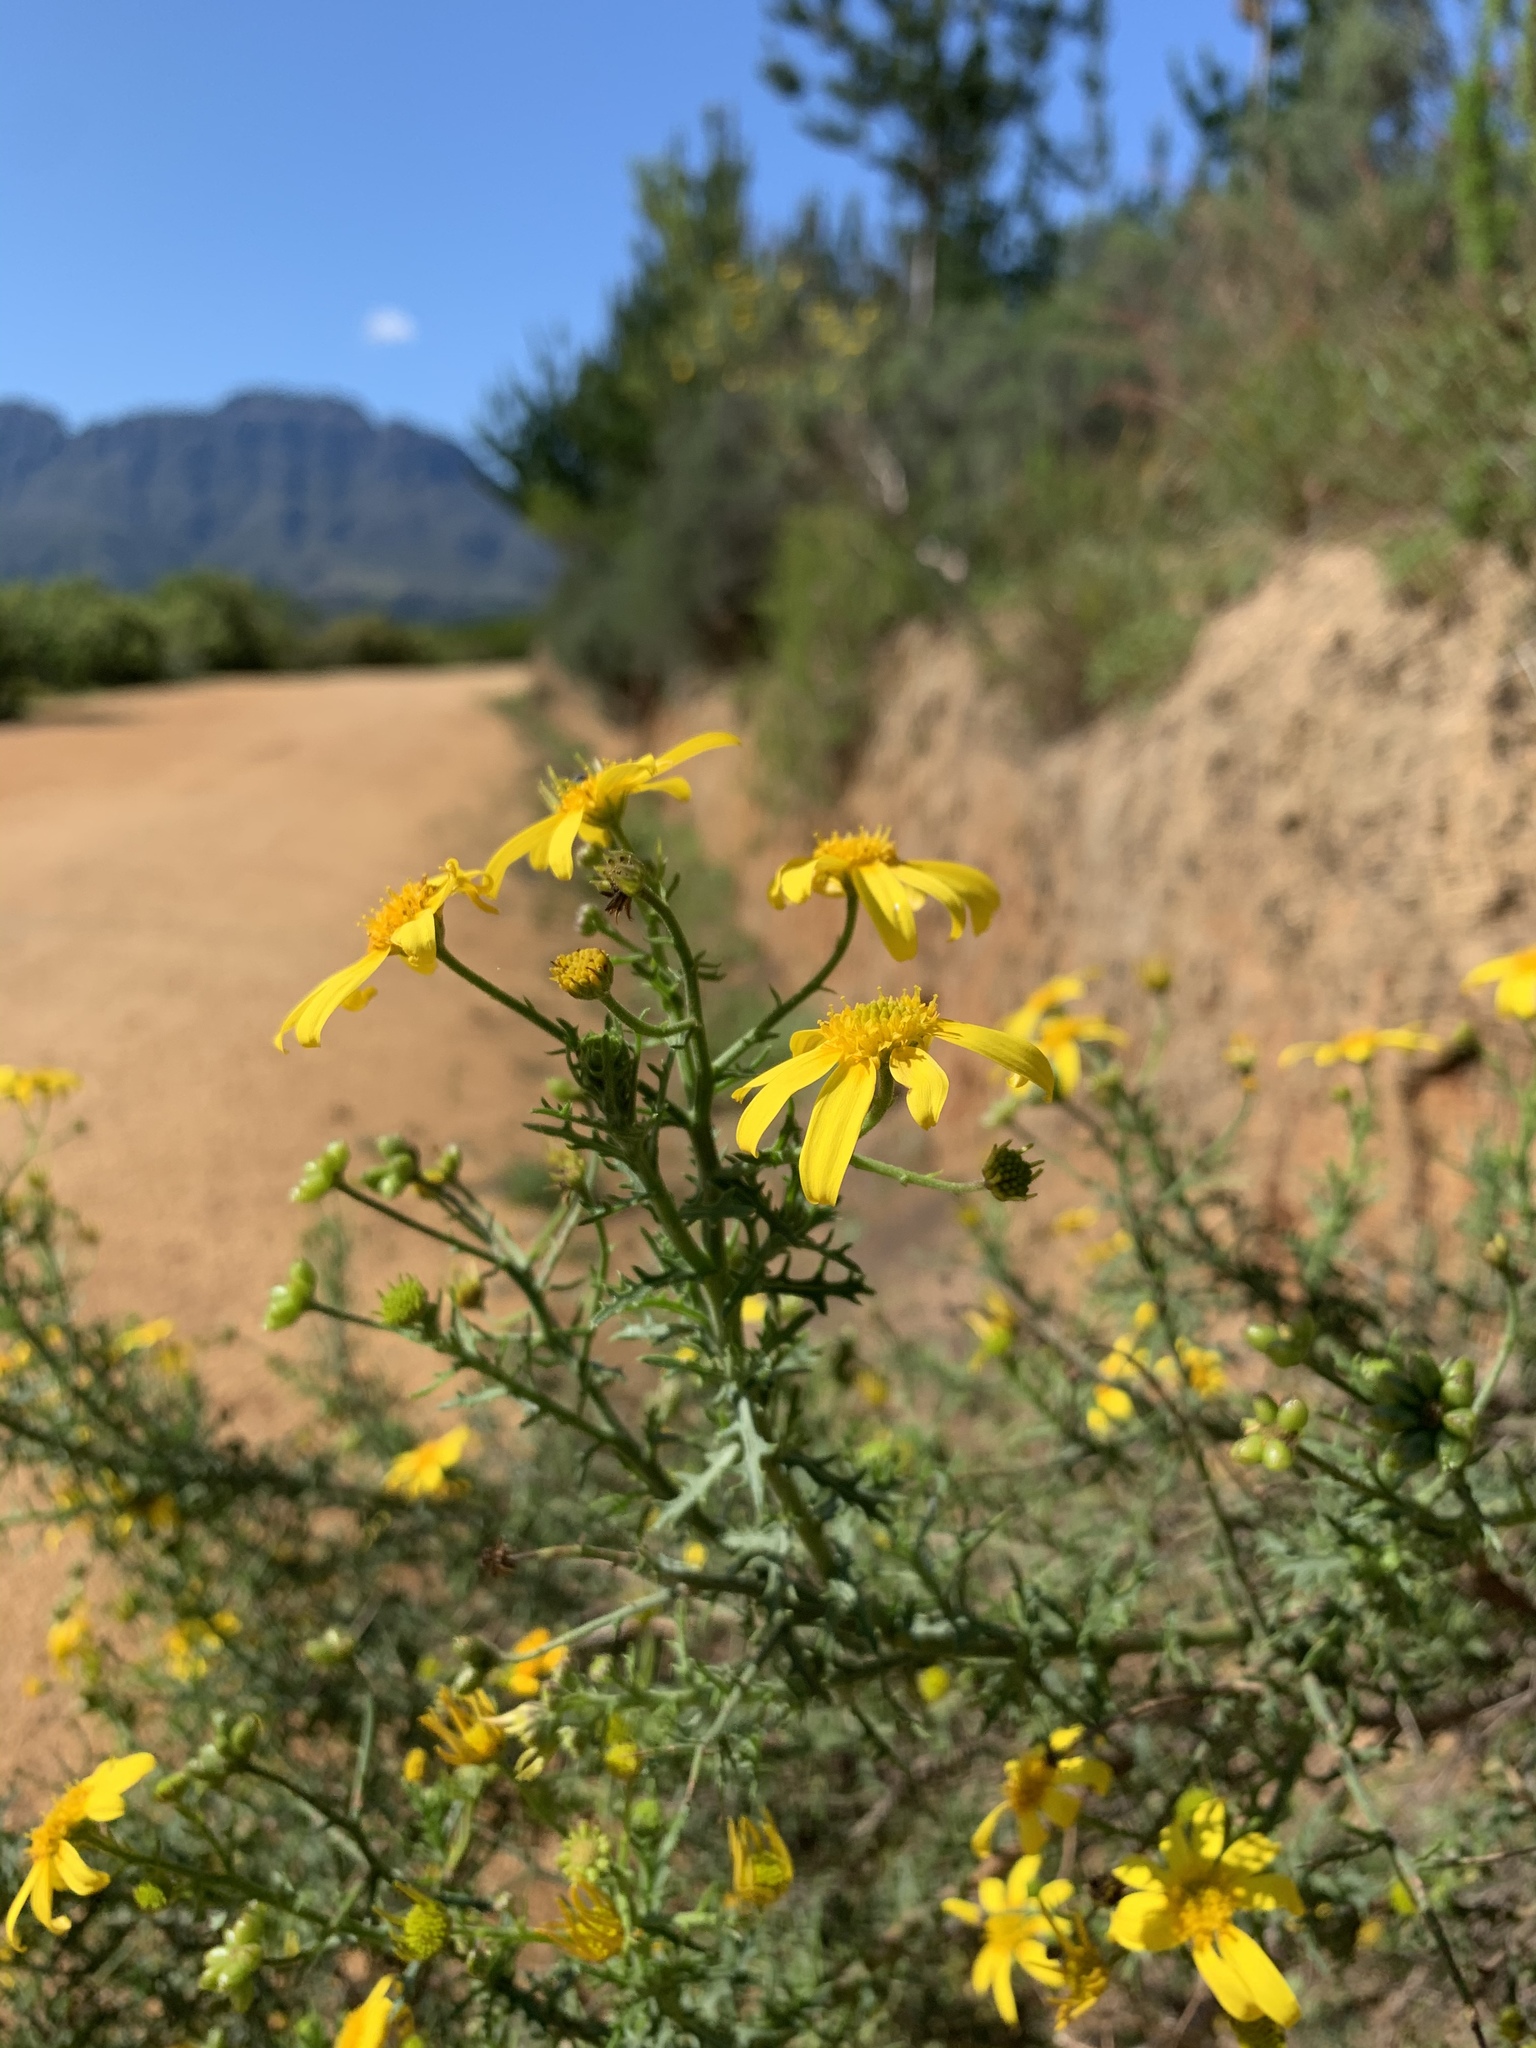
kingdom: Plantae
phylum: Tracheophyta
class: Magnoliopsida
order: Asterales
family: Asteraceae
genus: Osteospermum
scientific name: Osteospermum spinosum
